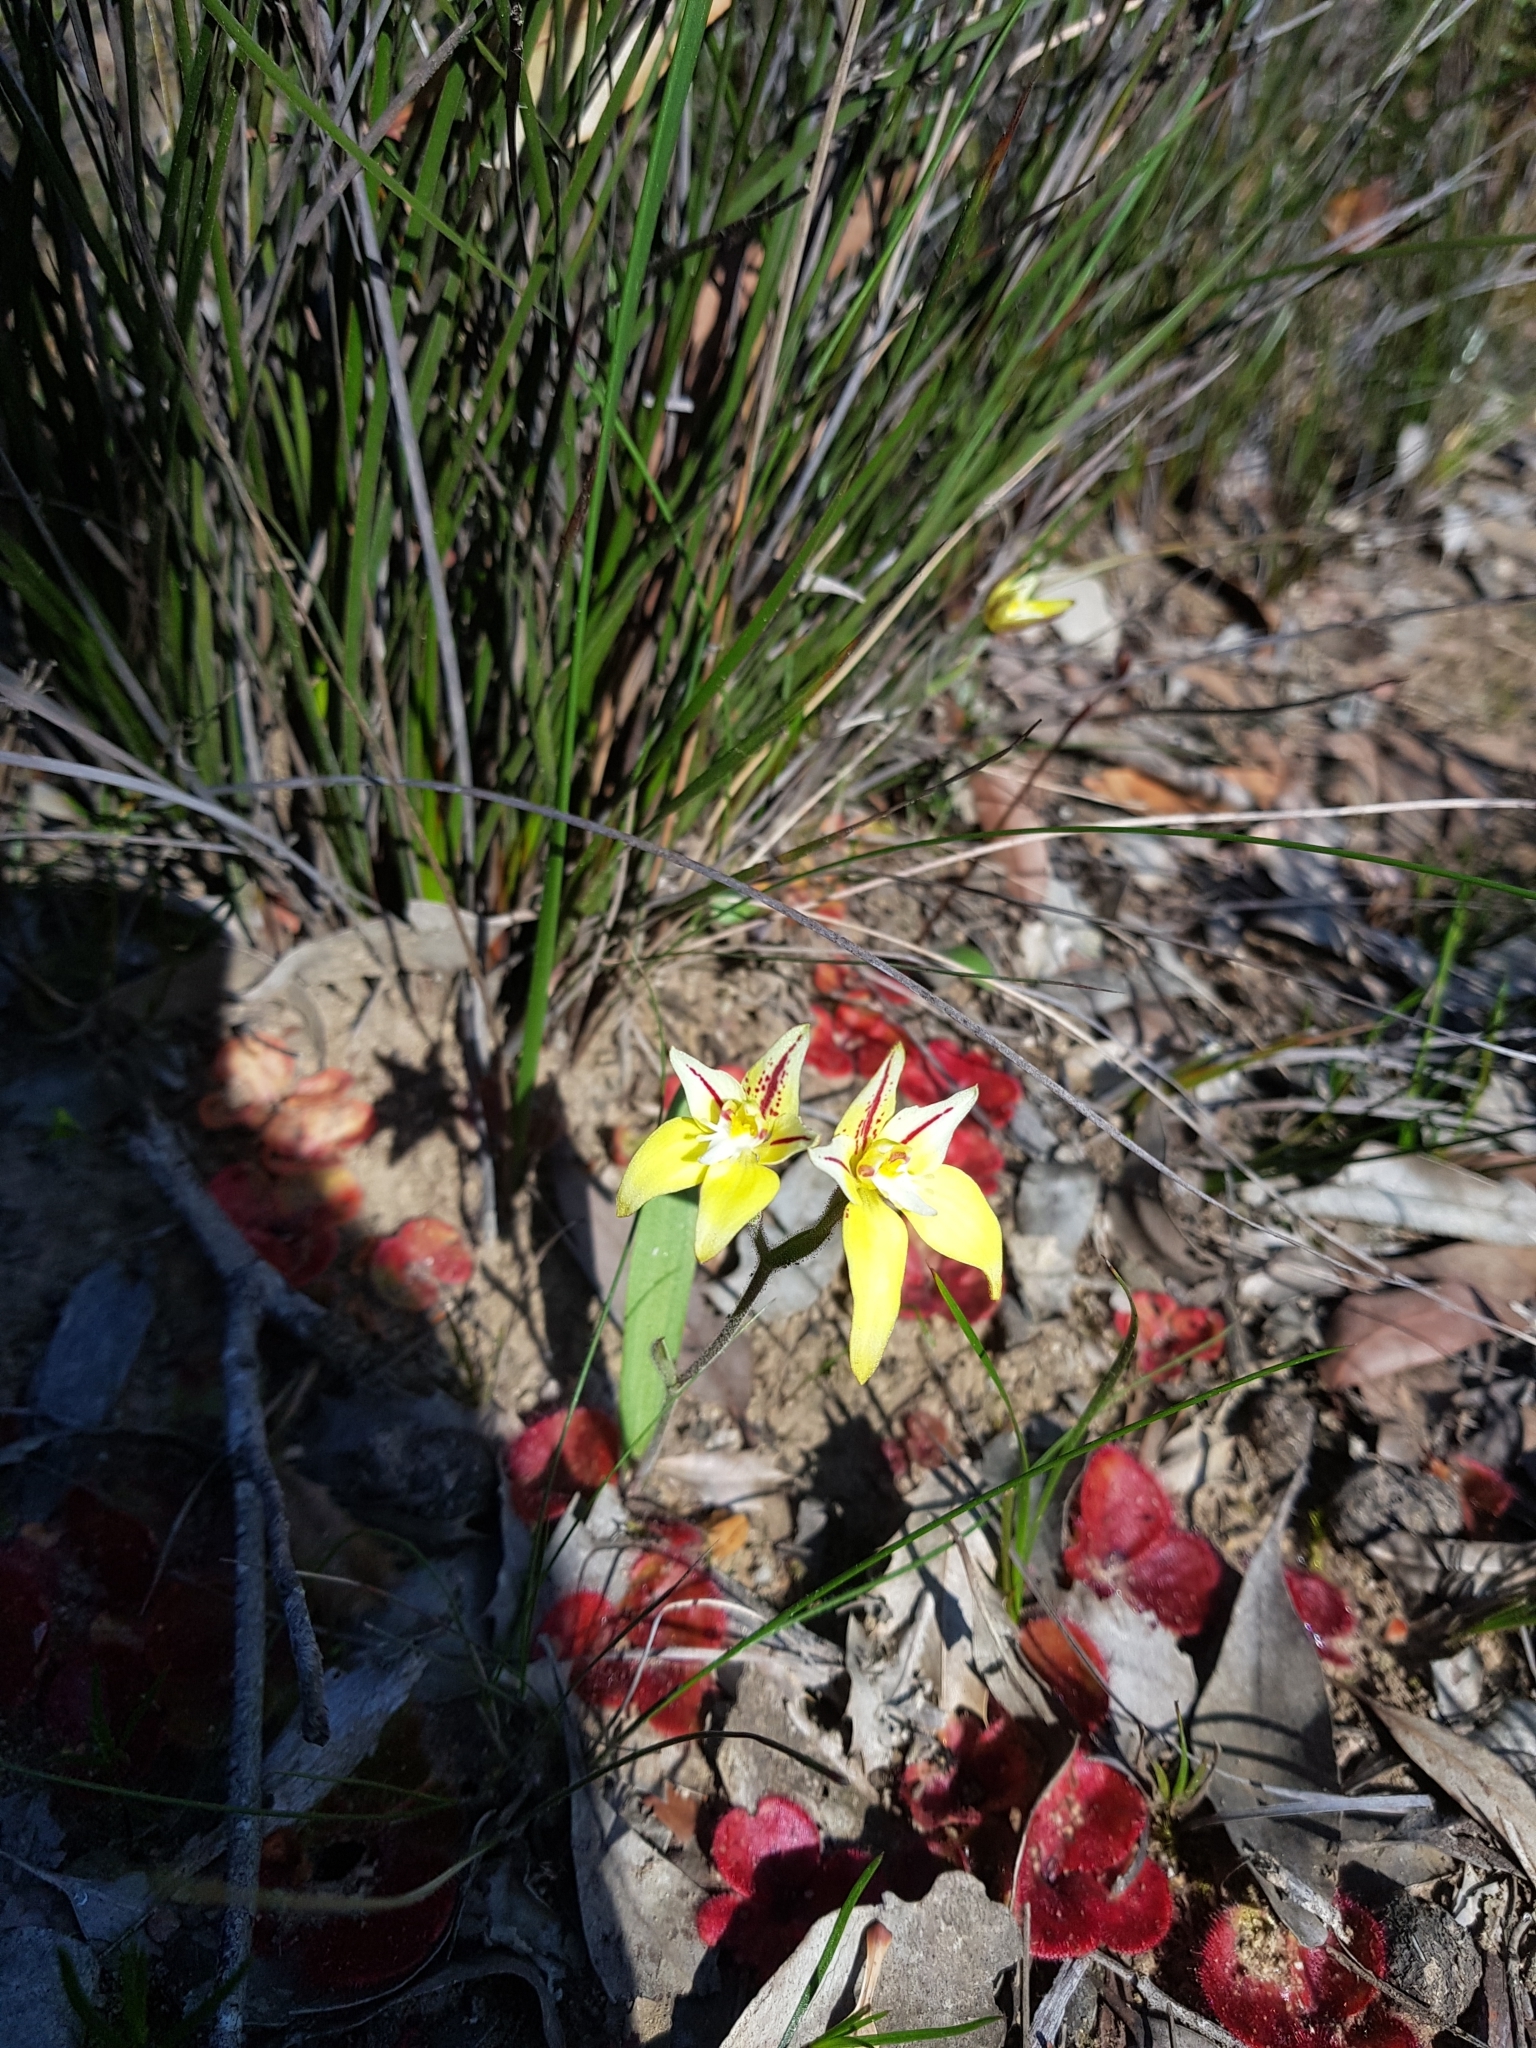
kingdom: Plantae
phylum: Tracheophyta
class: Liliopsida
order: Asparagales
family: Orchidaceae
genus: Caladenia
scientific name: Caladenia flava
